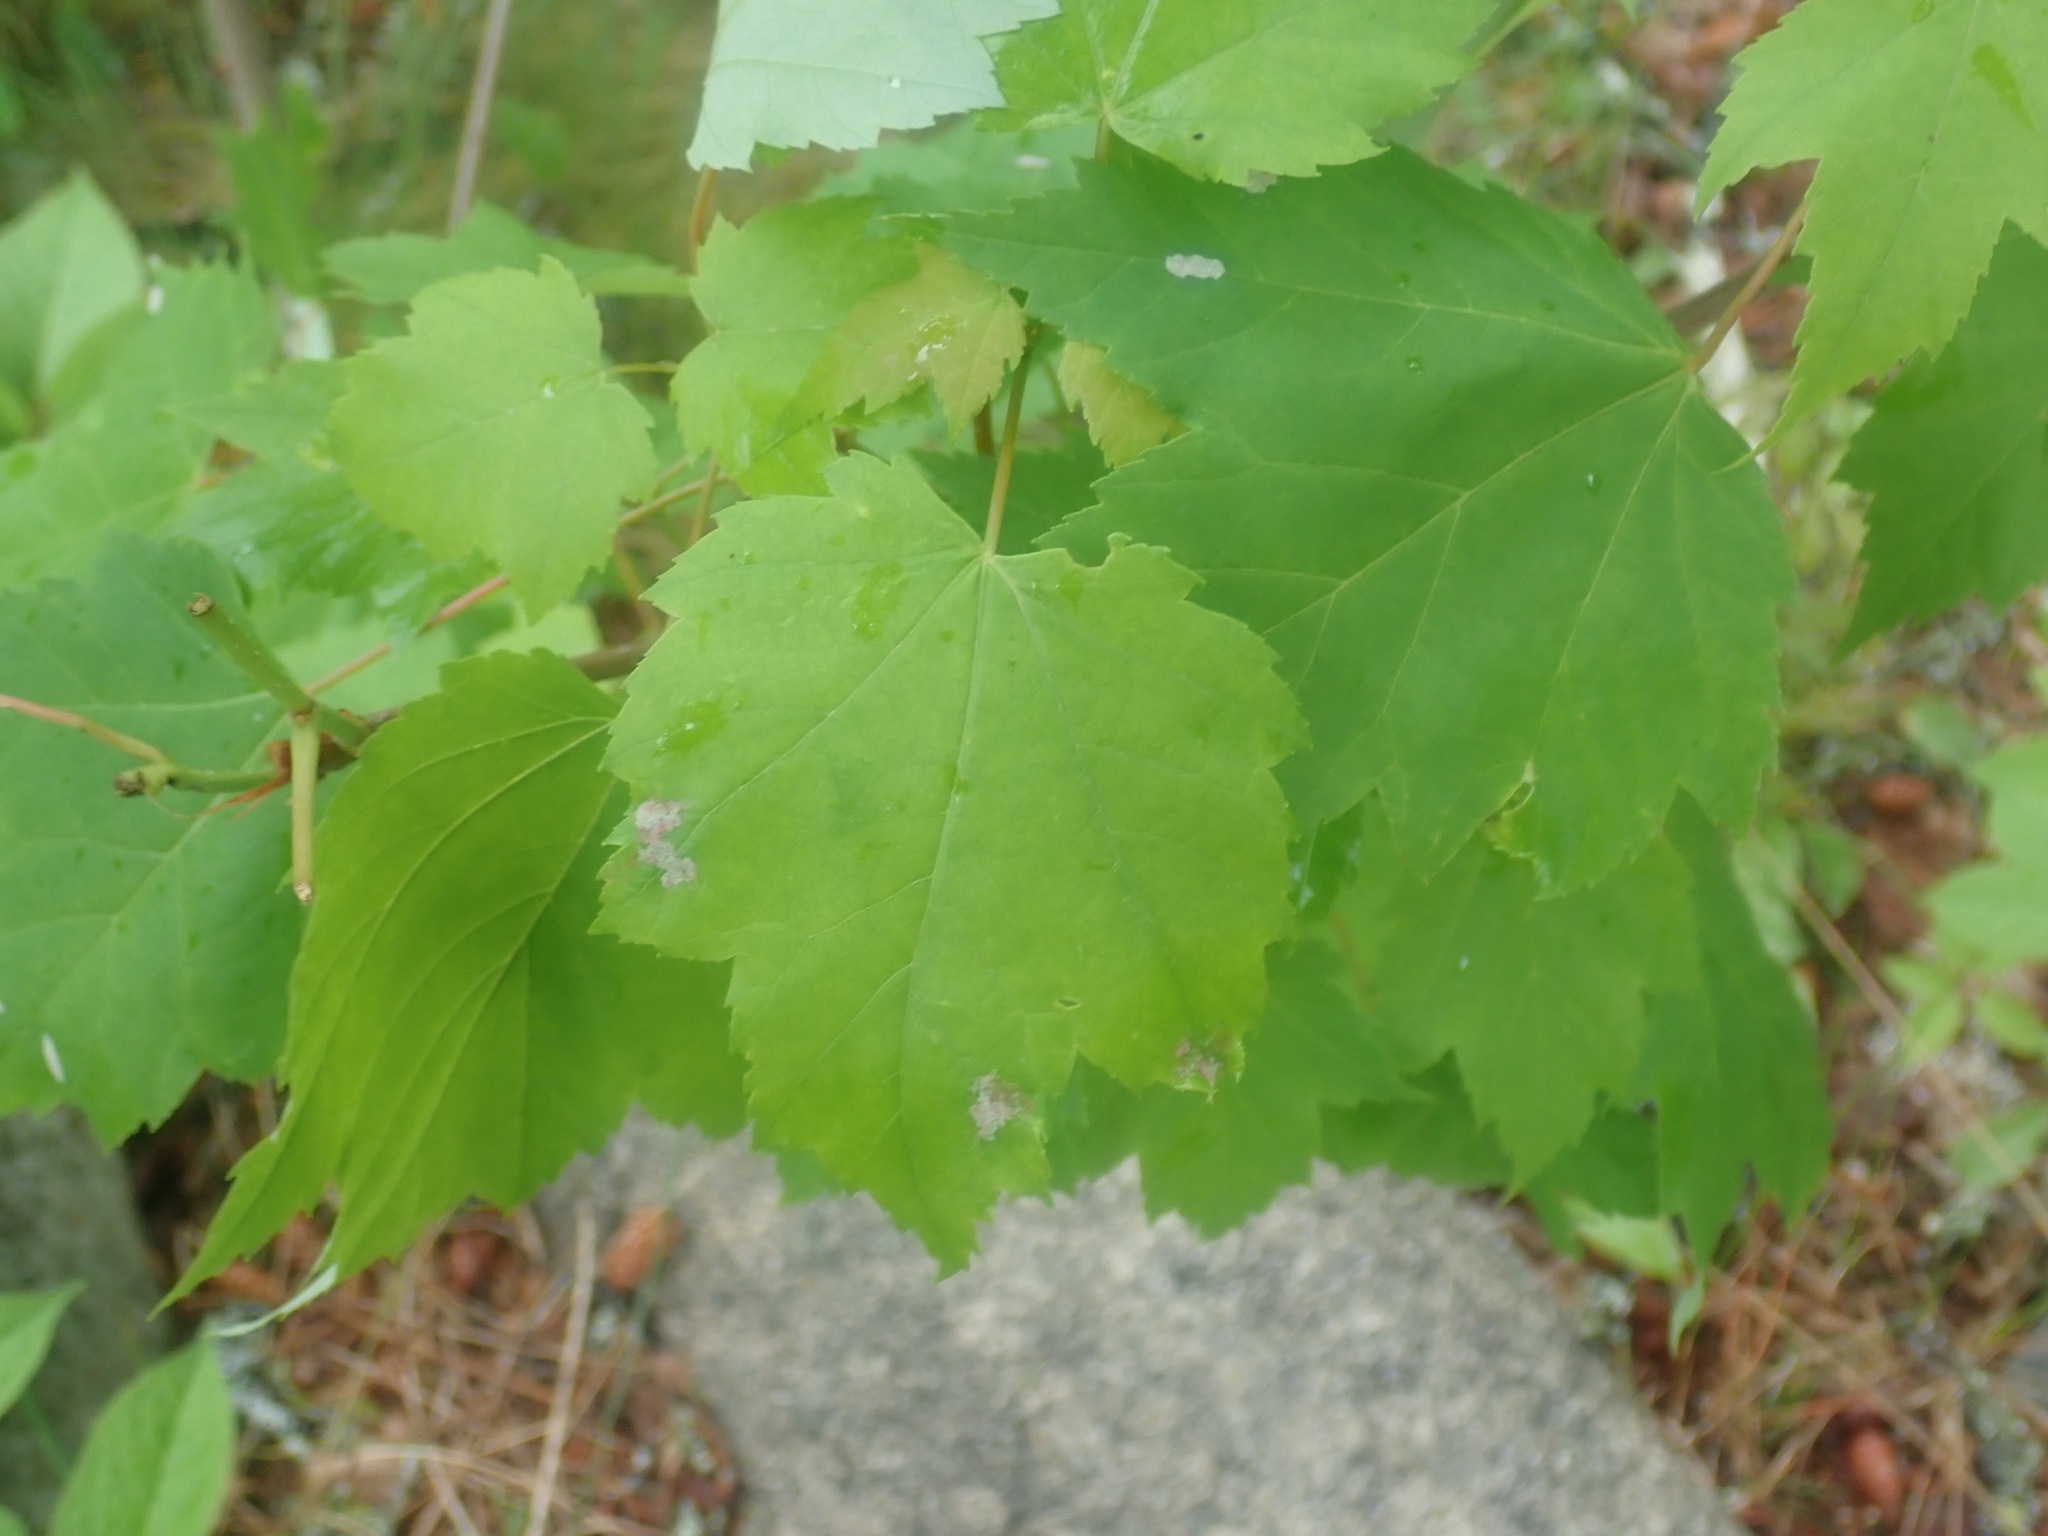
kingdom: Plantae
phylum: Tracheophyta
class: Magnoliopsida
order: Sapindales
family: Sapindaceae
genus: Acer
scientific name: Acer rubrum
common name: Red maple
